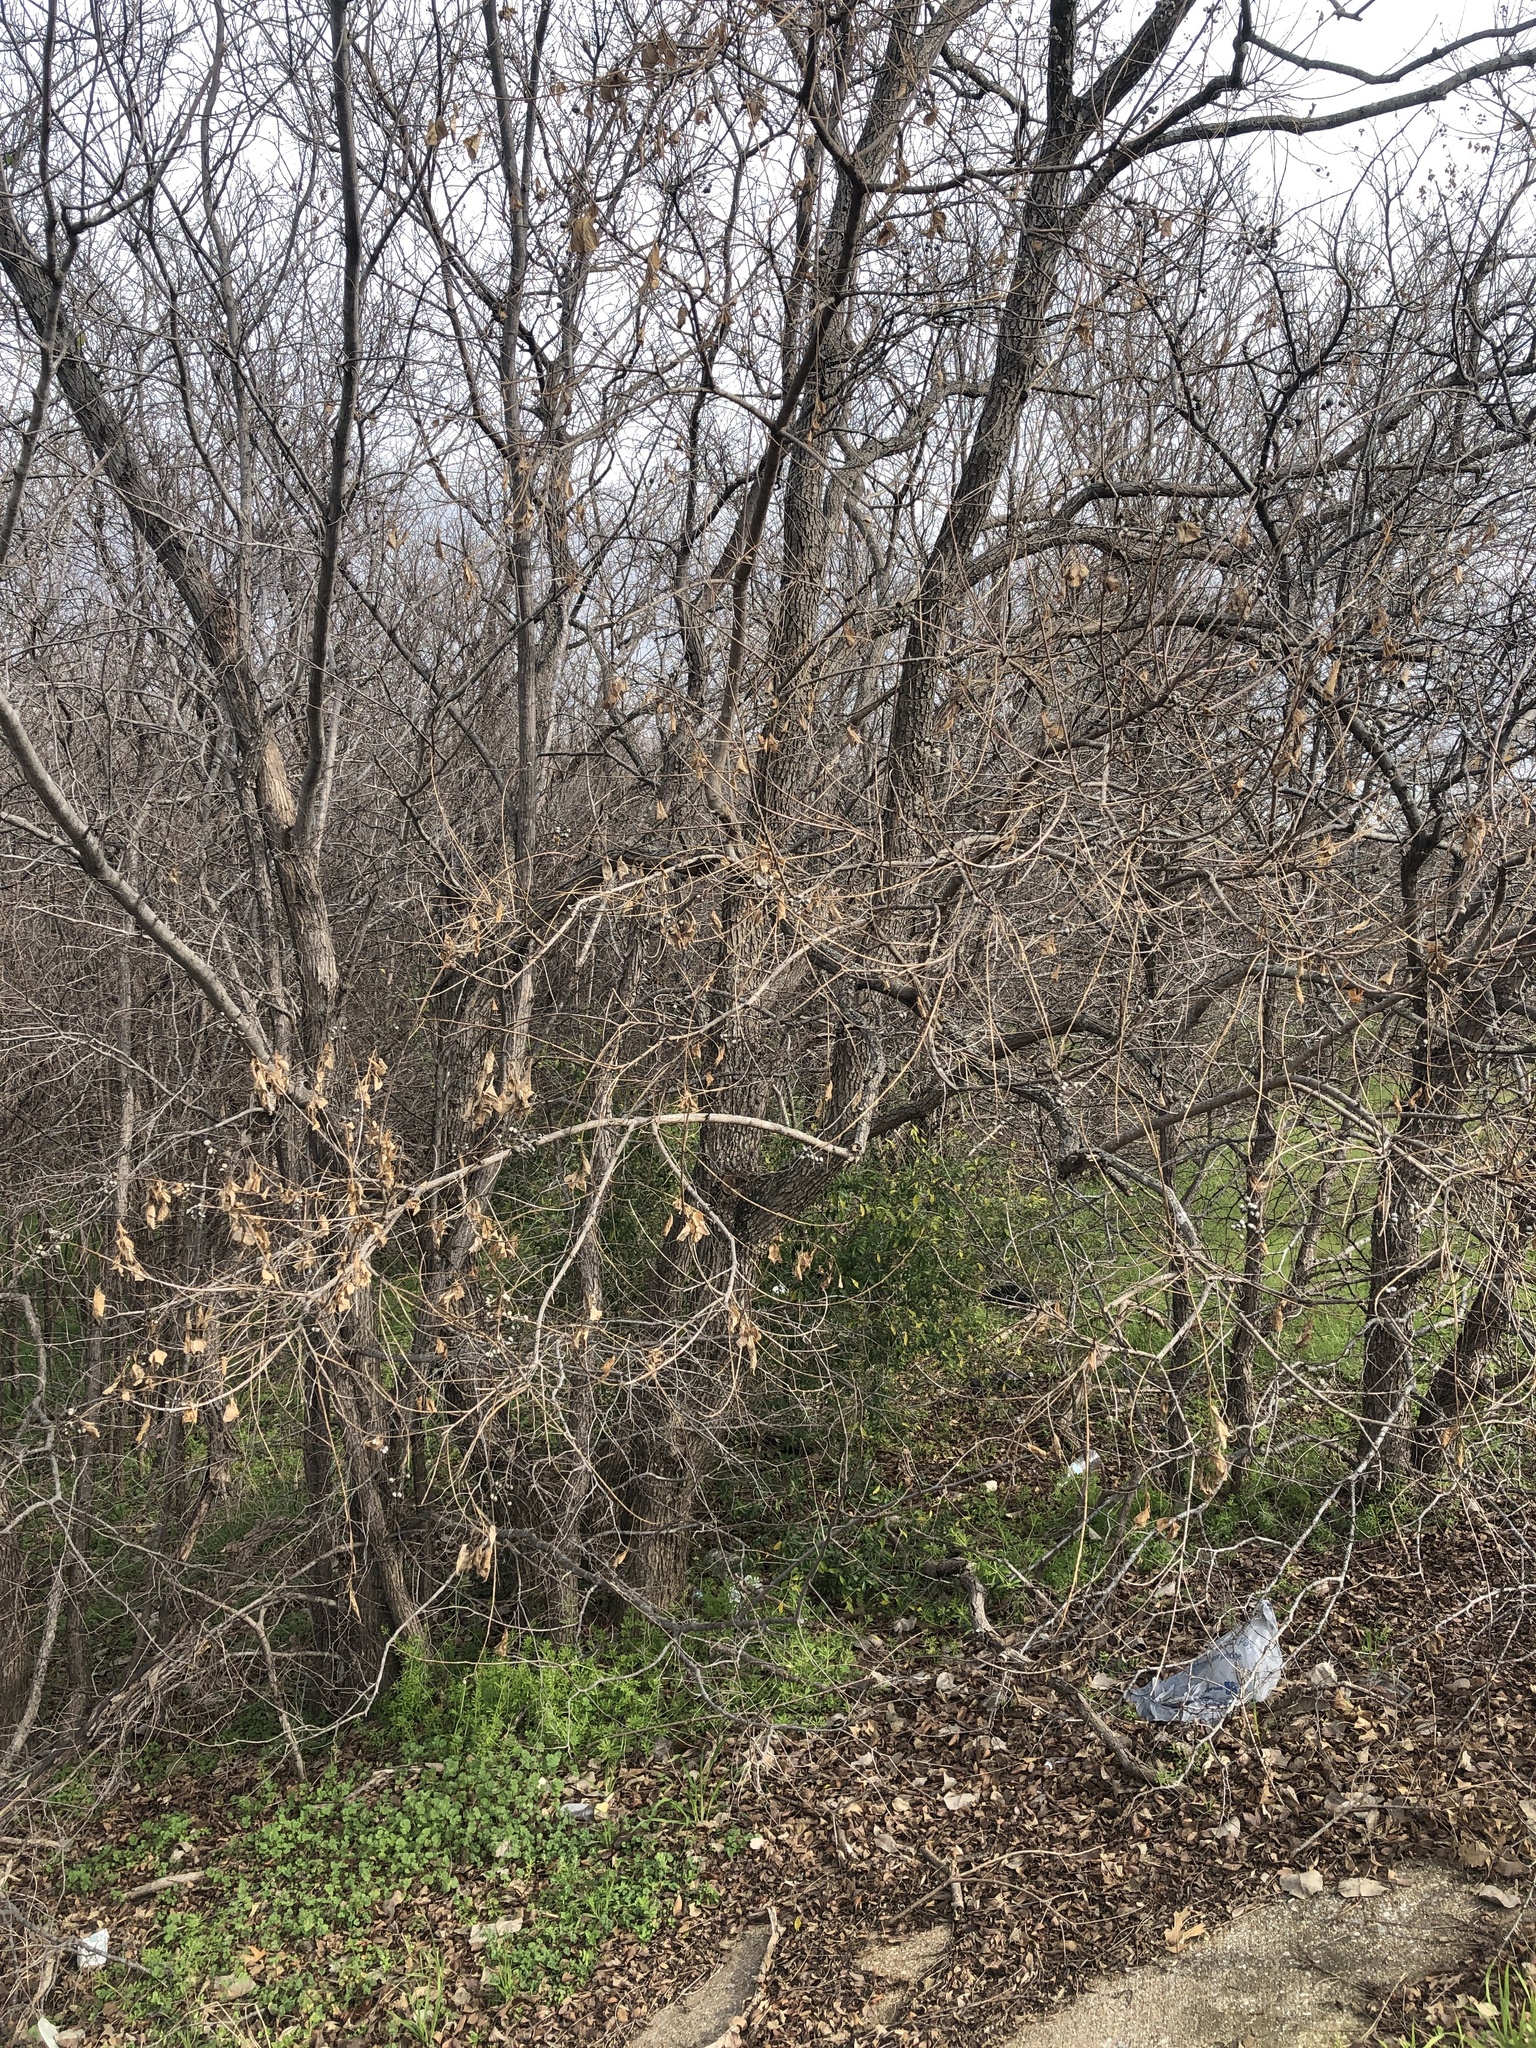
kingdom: Plantae
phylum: Tracheophyta
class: Magnoliopsida
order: Malpighiales
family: Euphorbiaceae
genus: Triadica
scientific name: Triadica sebifera
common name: Chinese tallow
